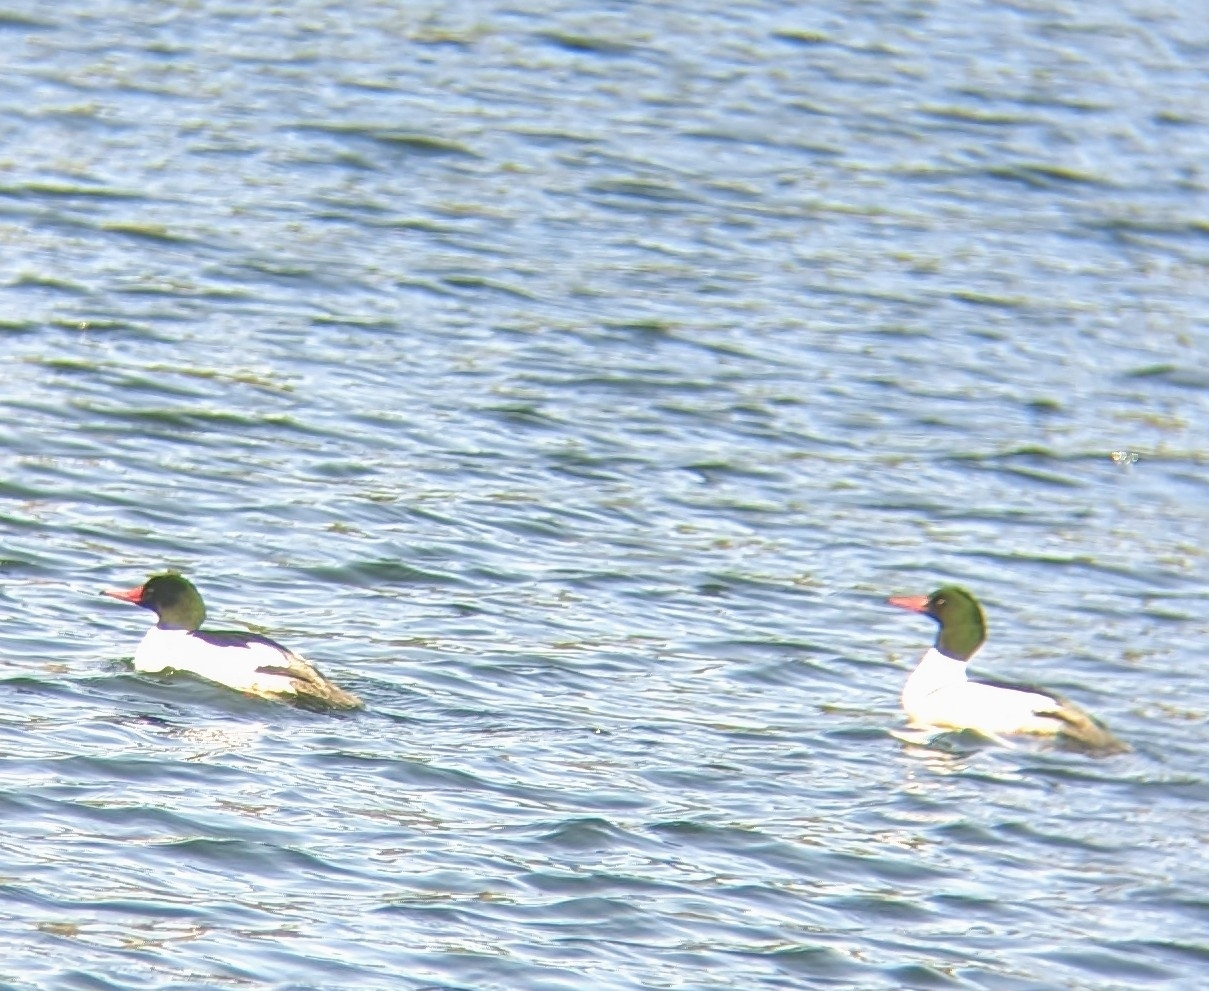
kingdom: Animalia
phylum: Chordata
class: Aves
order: Anseriformes
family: Anatidae
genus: Mergus
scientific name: Mergus merganser
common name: Common merganser
